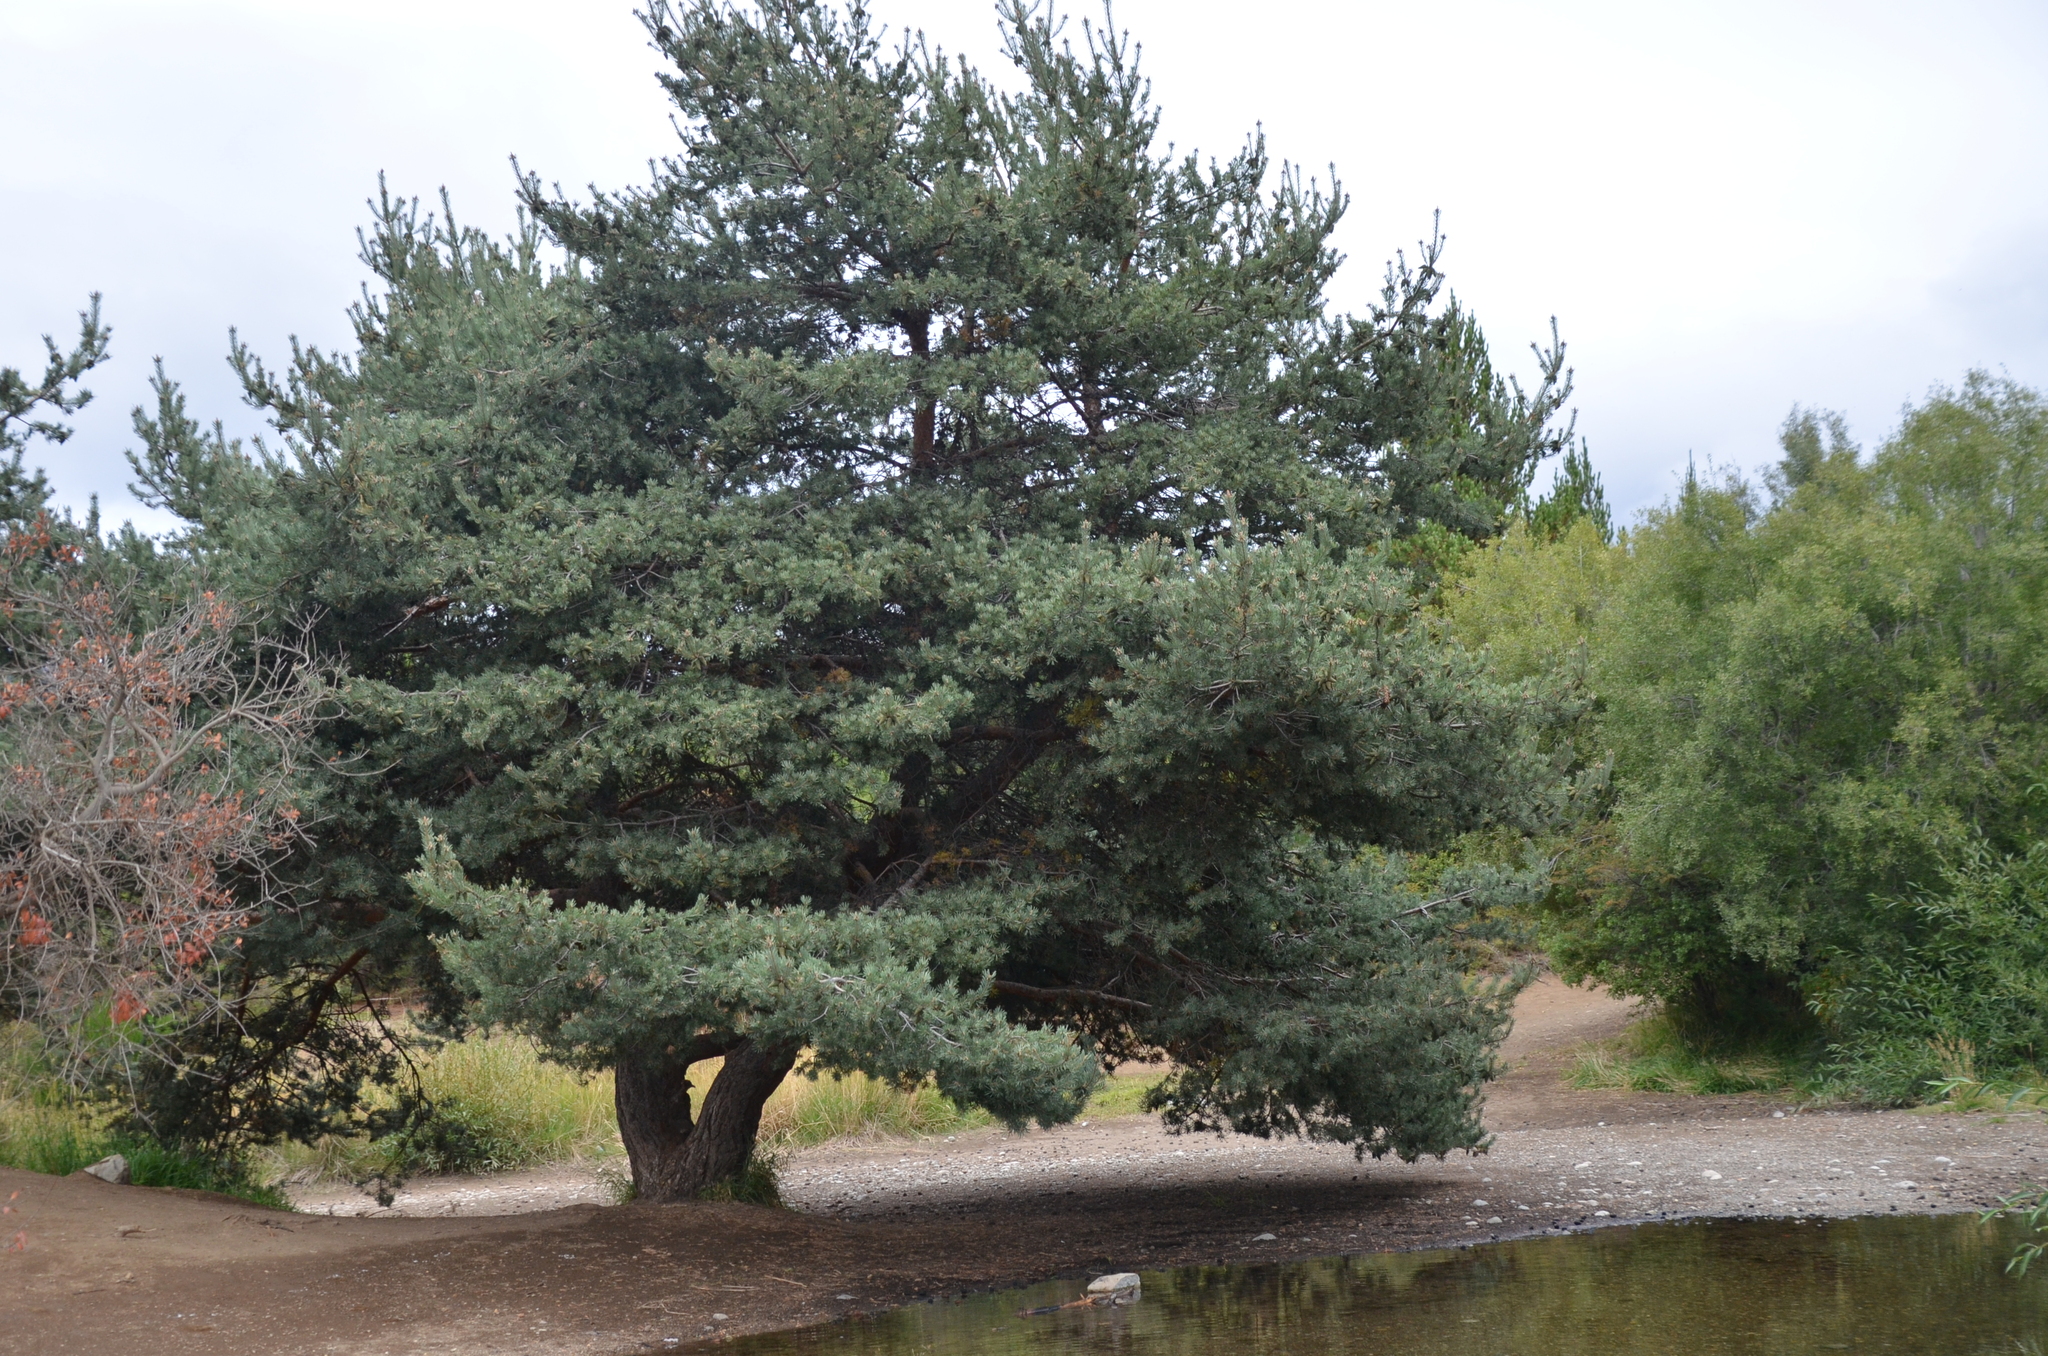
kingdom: Plantae
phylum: Tracheophyta
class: Pinopsida
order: Pinales
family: Pinaceae
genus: Pinus
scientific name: Pinus sylvestris
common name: Scots pine
